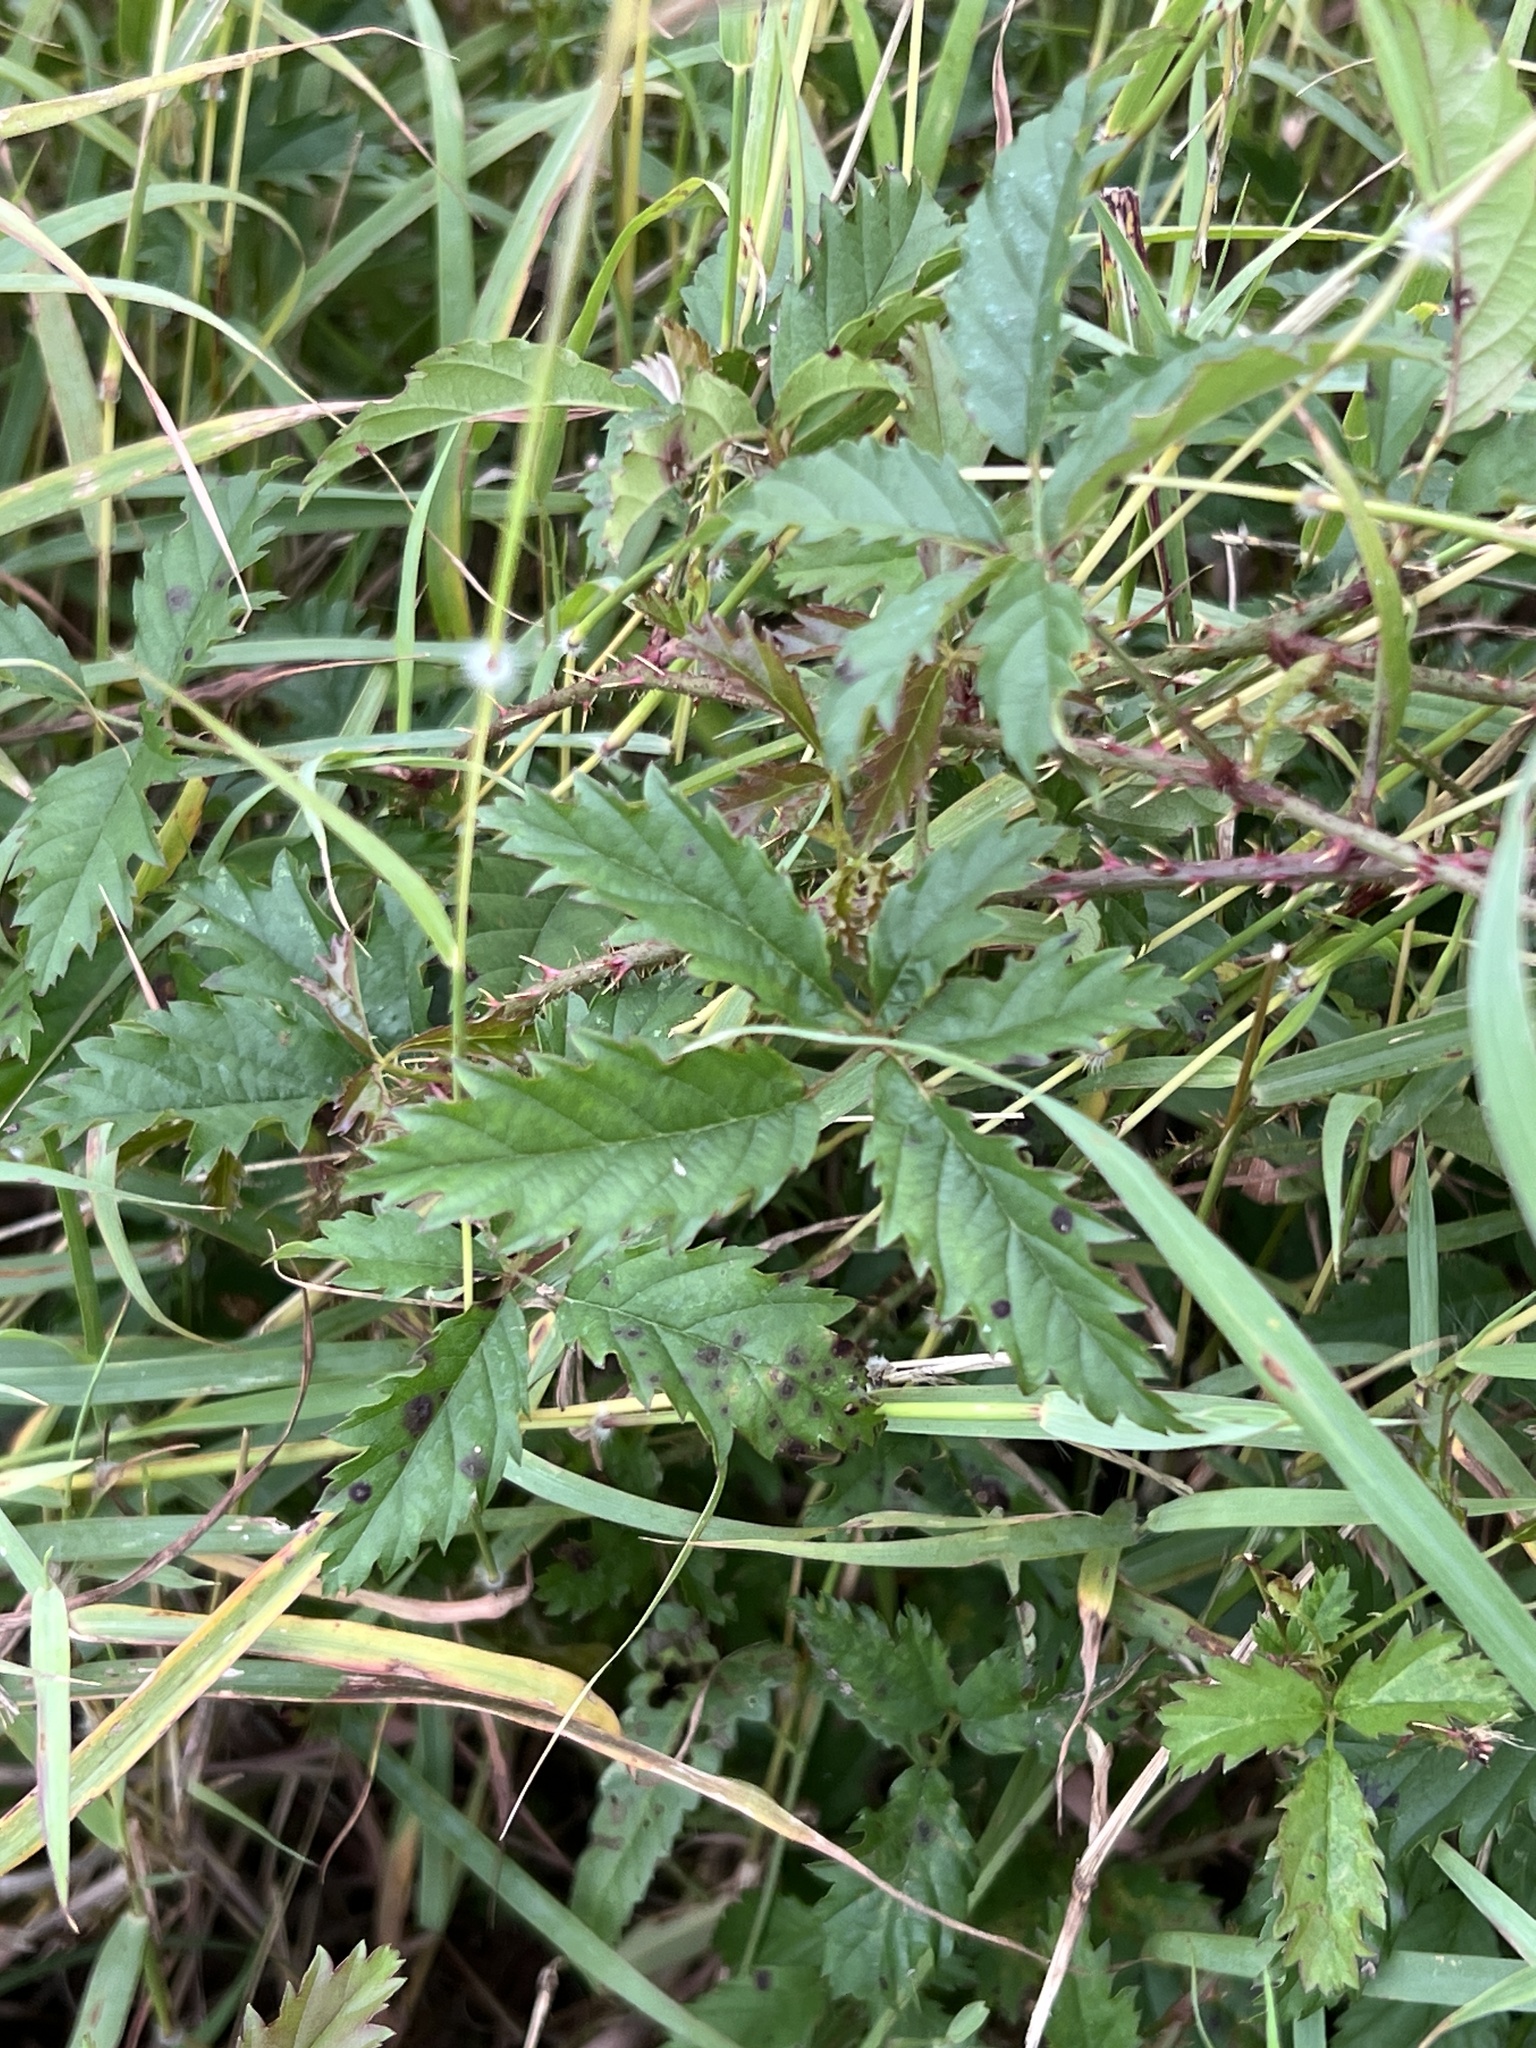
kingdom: Plantae
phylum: Tracheophyta
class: Magnoliopsida
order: Rosales
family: Rosaceae
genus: Rubus
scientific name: Rubus trivialis
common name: Southern dewberry
